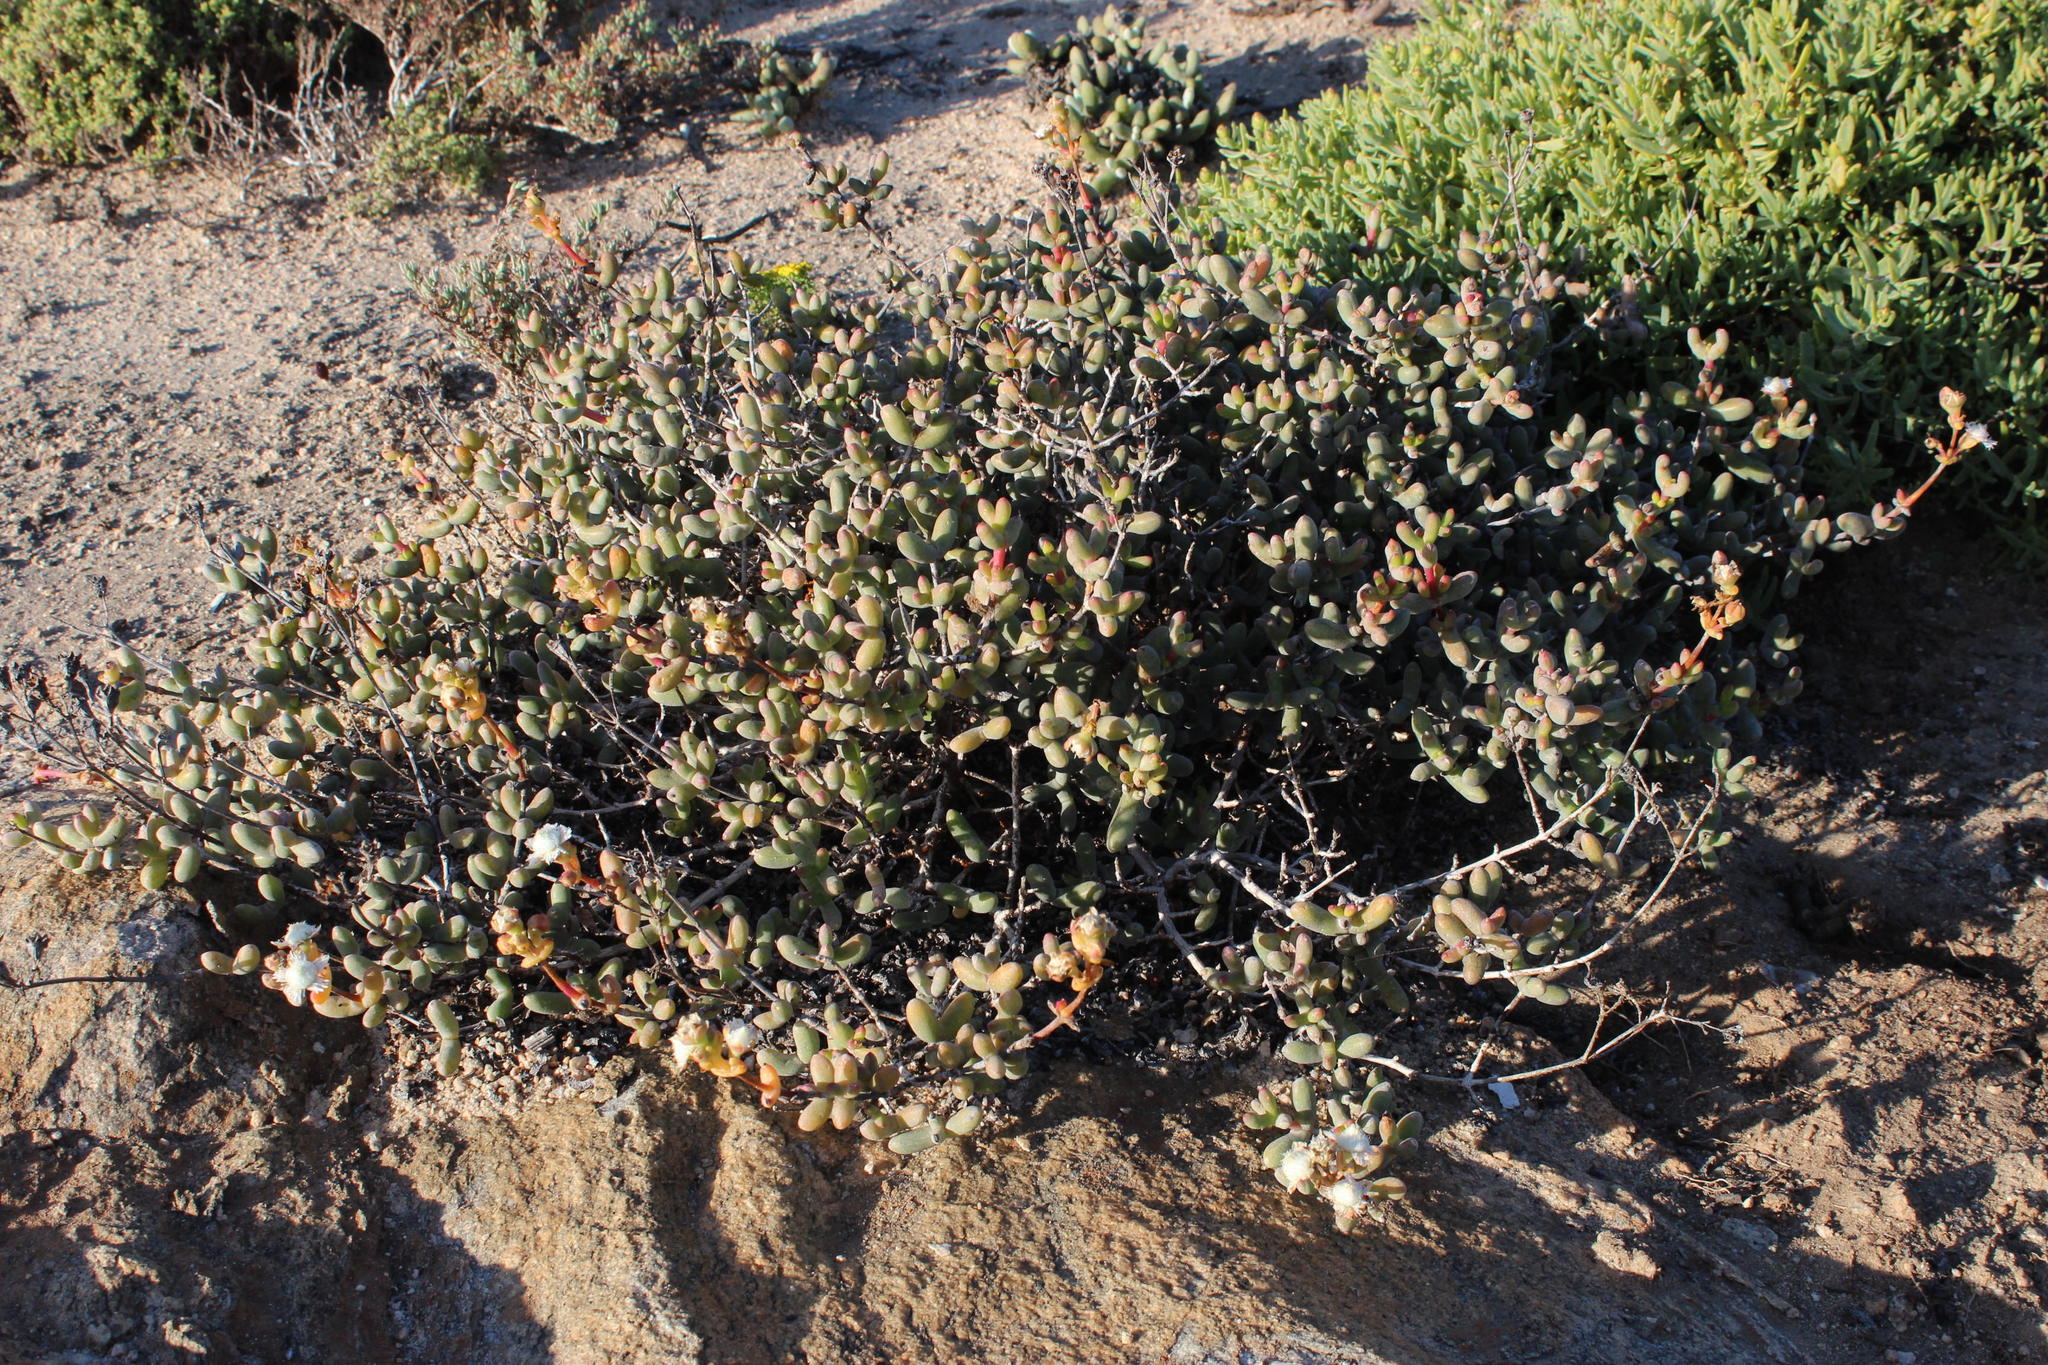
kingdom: Plantae
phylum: Tracheophyta
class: Magnoliopsida
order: Caryophyllales
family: Aizoaceae
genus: Stoeberia
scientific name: Stoeberia beetzii
